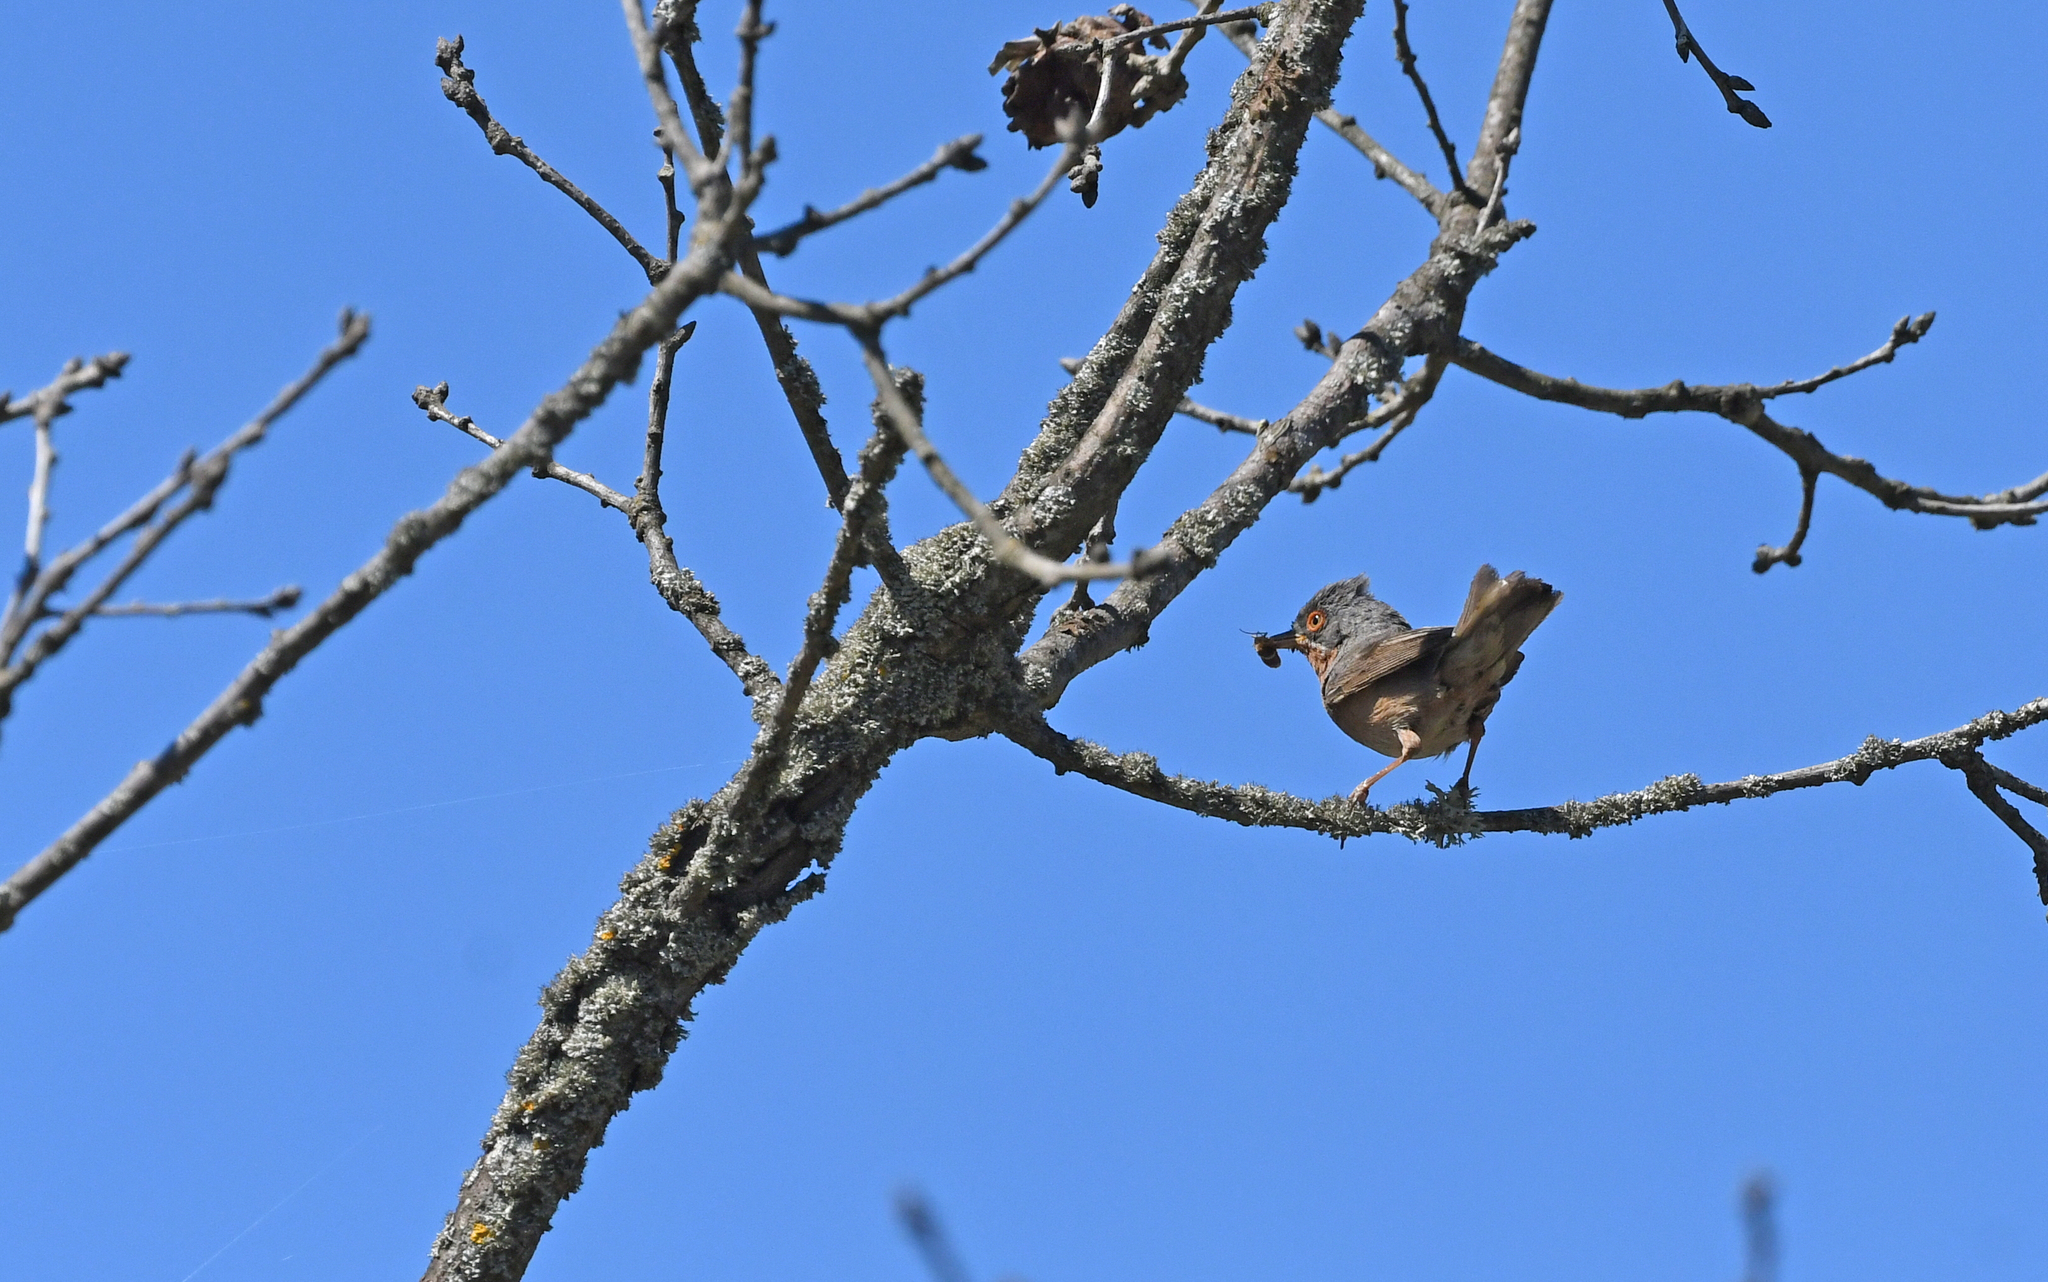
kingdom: Animalia
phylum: Chordata
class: Aves
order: Passeriformes
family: Sylviidae
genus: Curruca
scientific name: Curruca iberiae
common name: Western subalpine warbler
